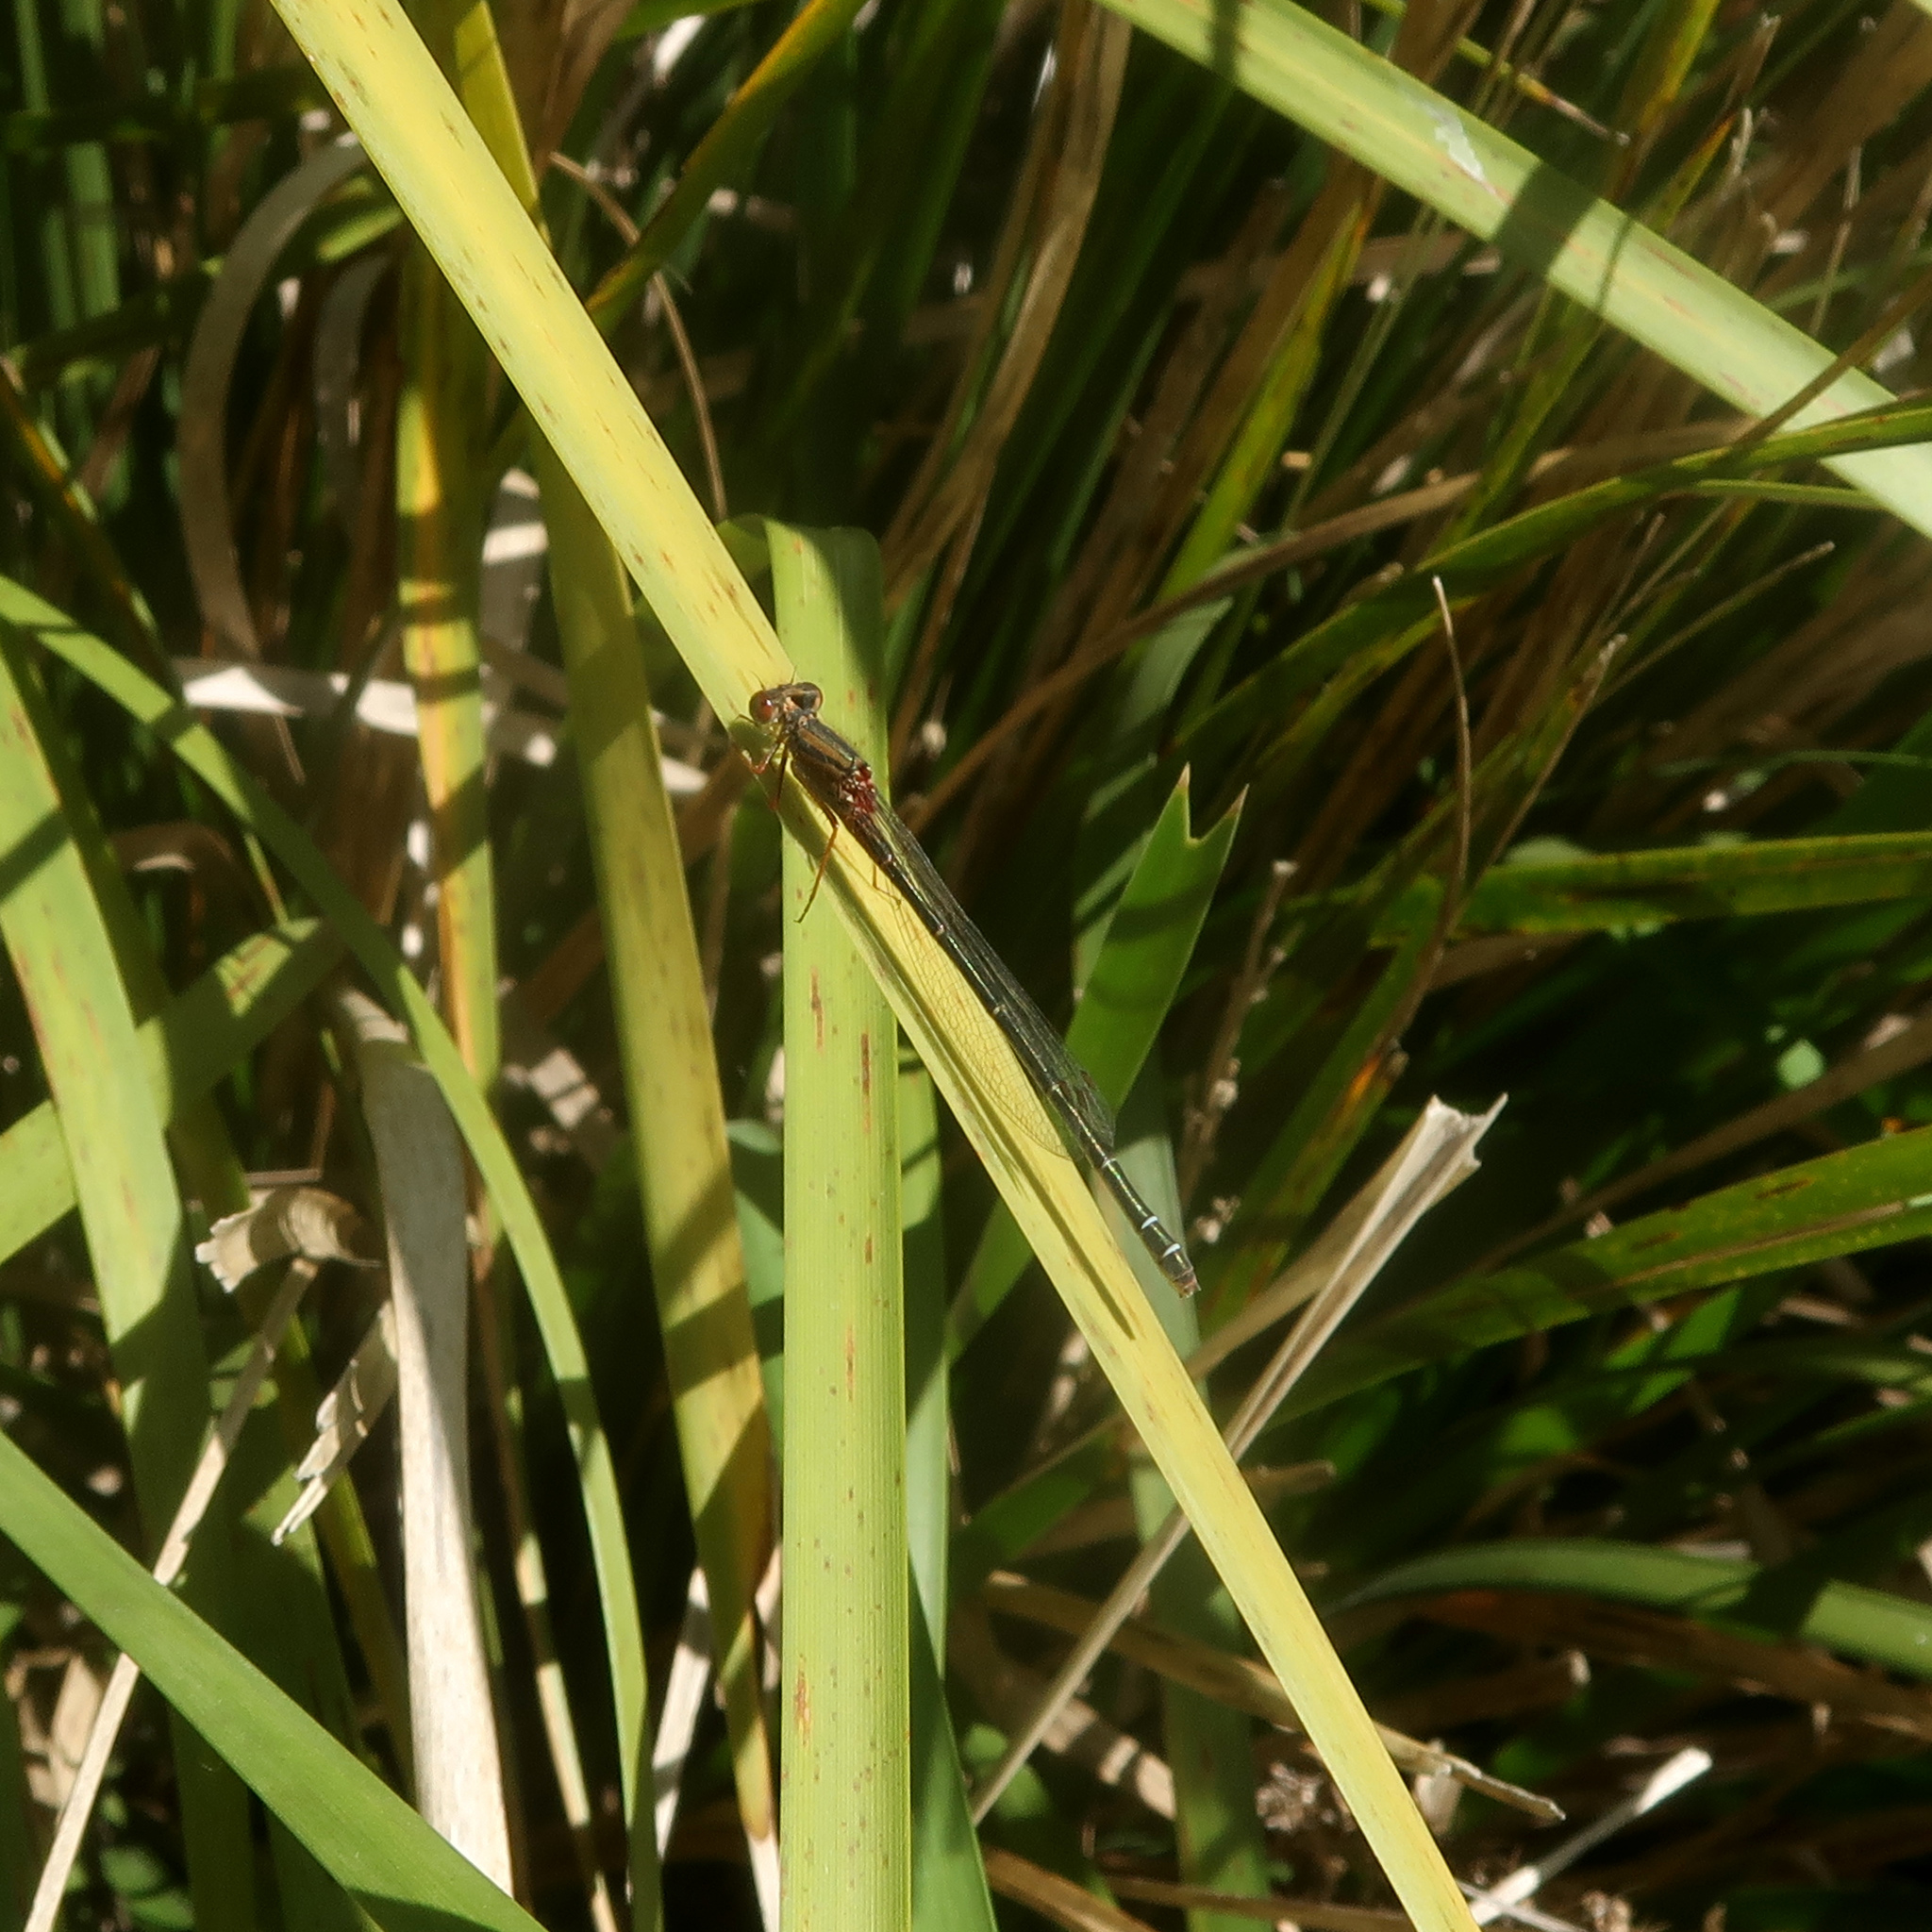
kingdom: Animalia
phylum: Arthropoda
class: Insecta
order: Odonata
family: Coenagrionidae
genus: Xanthagrion
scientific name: Xanthagrion erythroneurum
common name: Red and blue damsel
